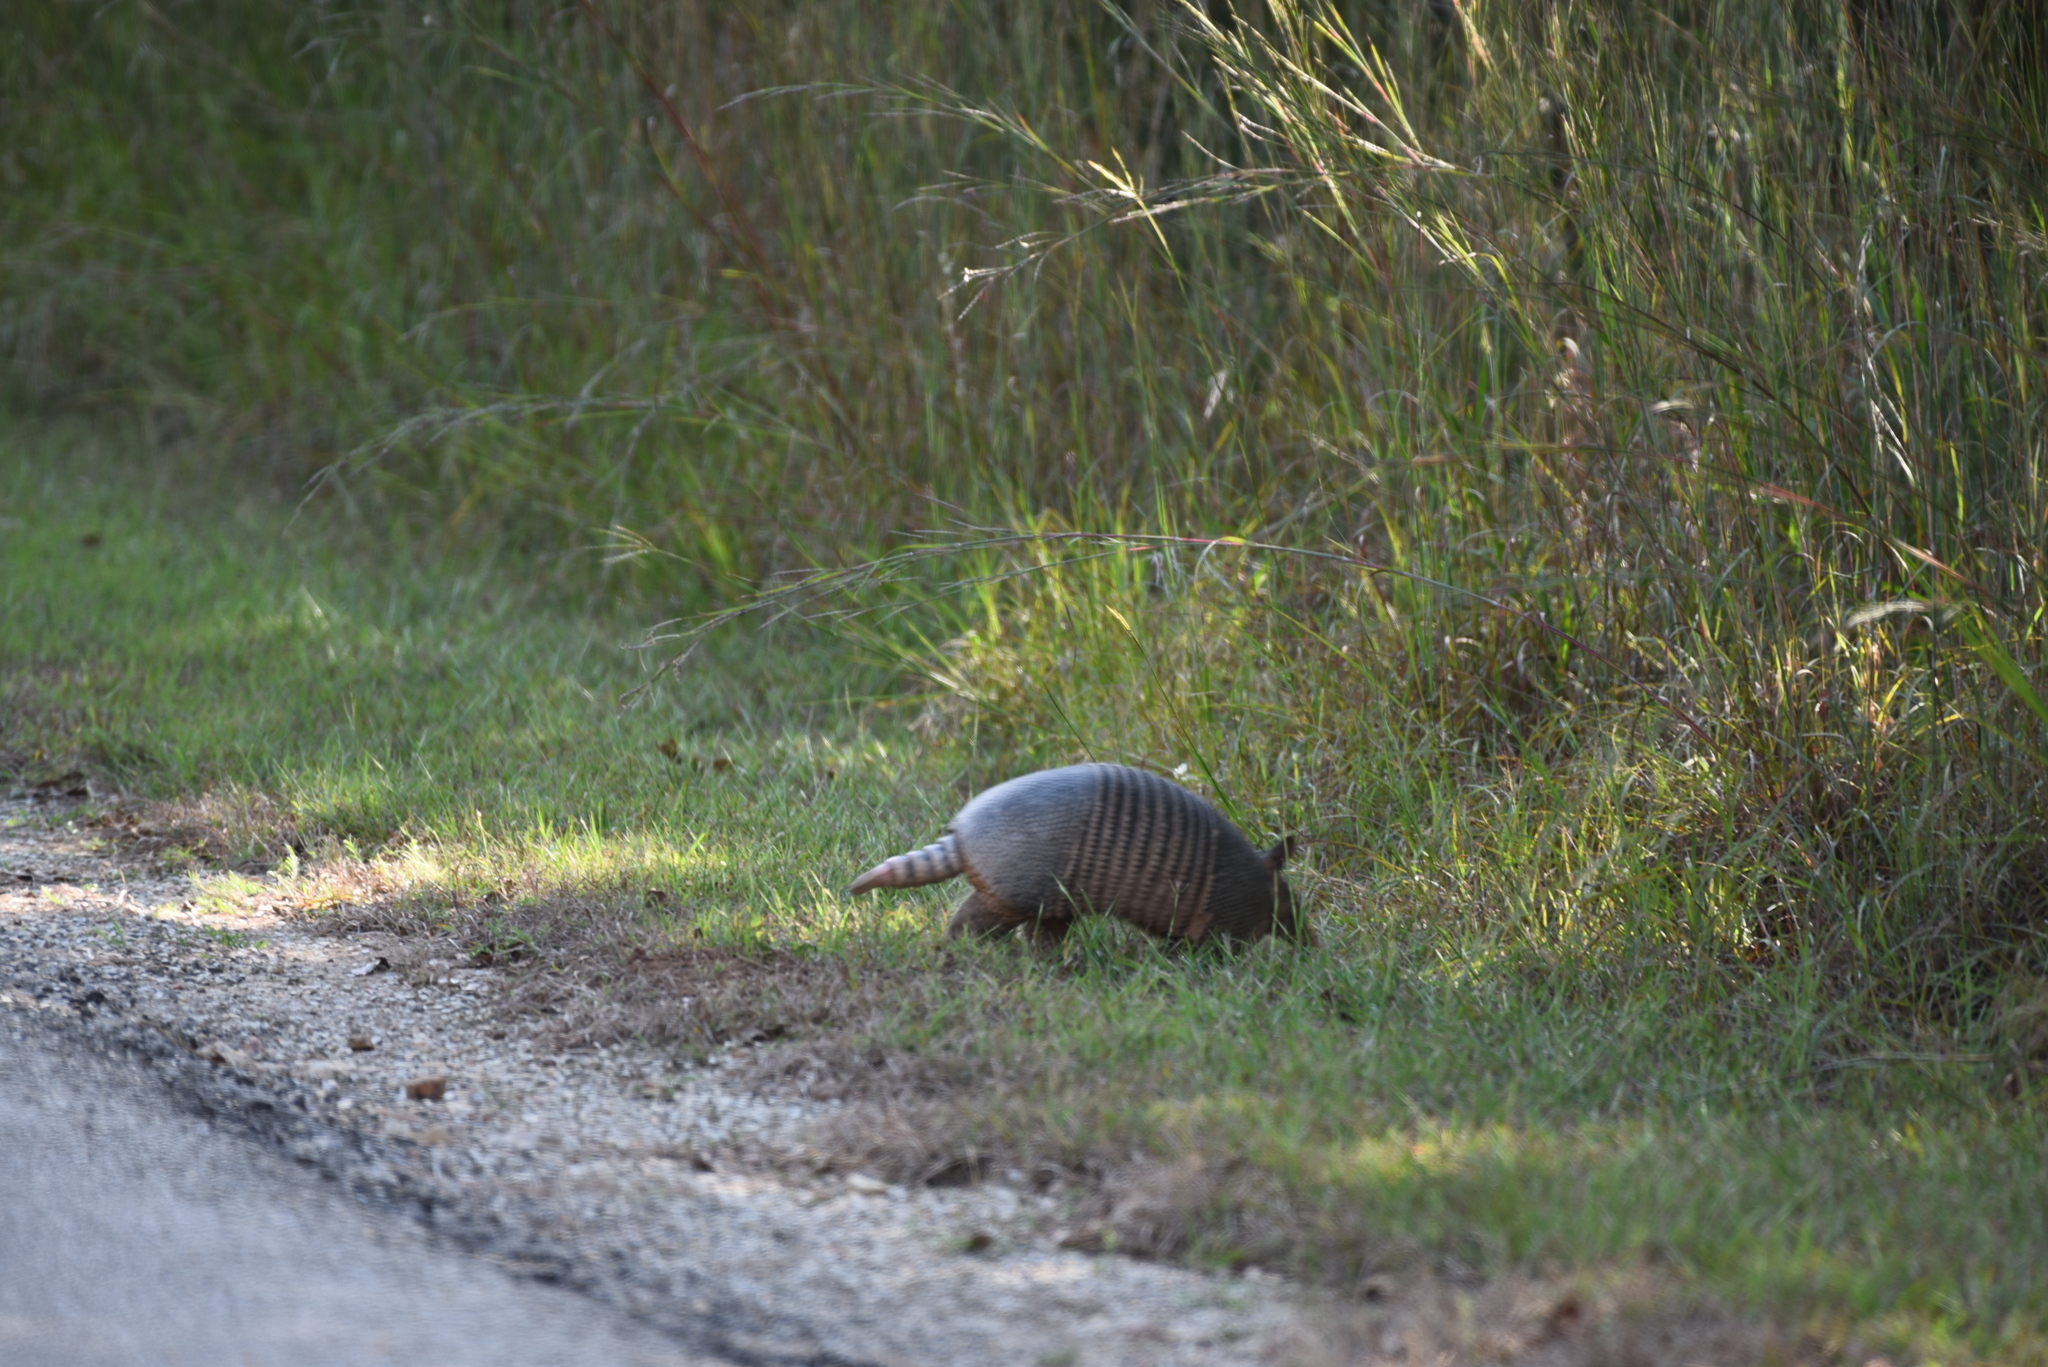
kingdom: Animalia
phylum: Chordata
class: Mammalia
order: Cingulata
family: Dasypodidae
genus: Dasypus
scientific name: Dasypus novemcinctus
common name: Nine-banded armadillo
